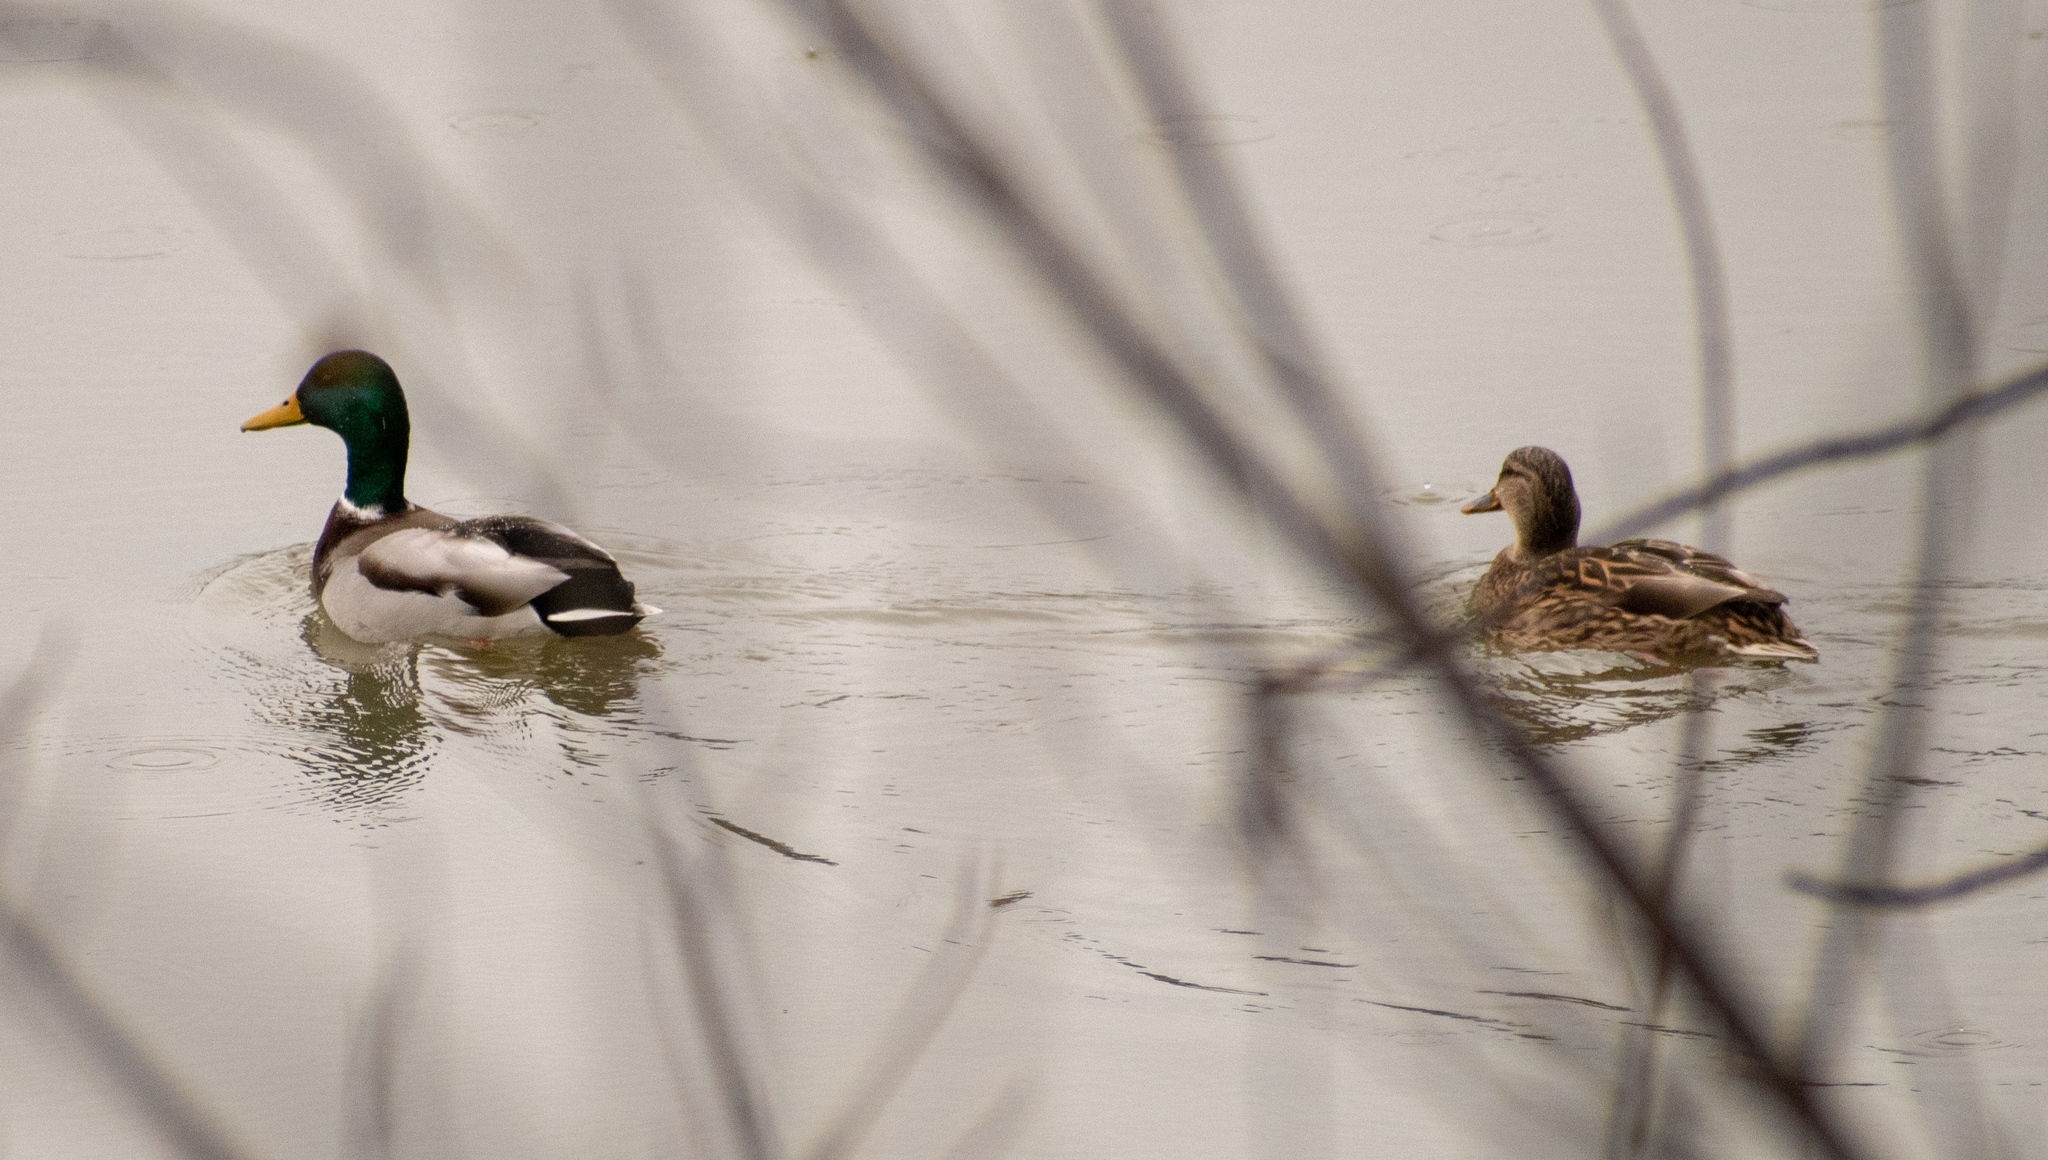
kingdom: Animalia
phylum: Chordata
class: Aves
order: Anseriformes
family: Anatidae
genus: Anas
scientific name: Anas platyrhynchos
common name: Mallard
